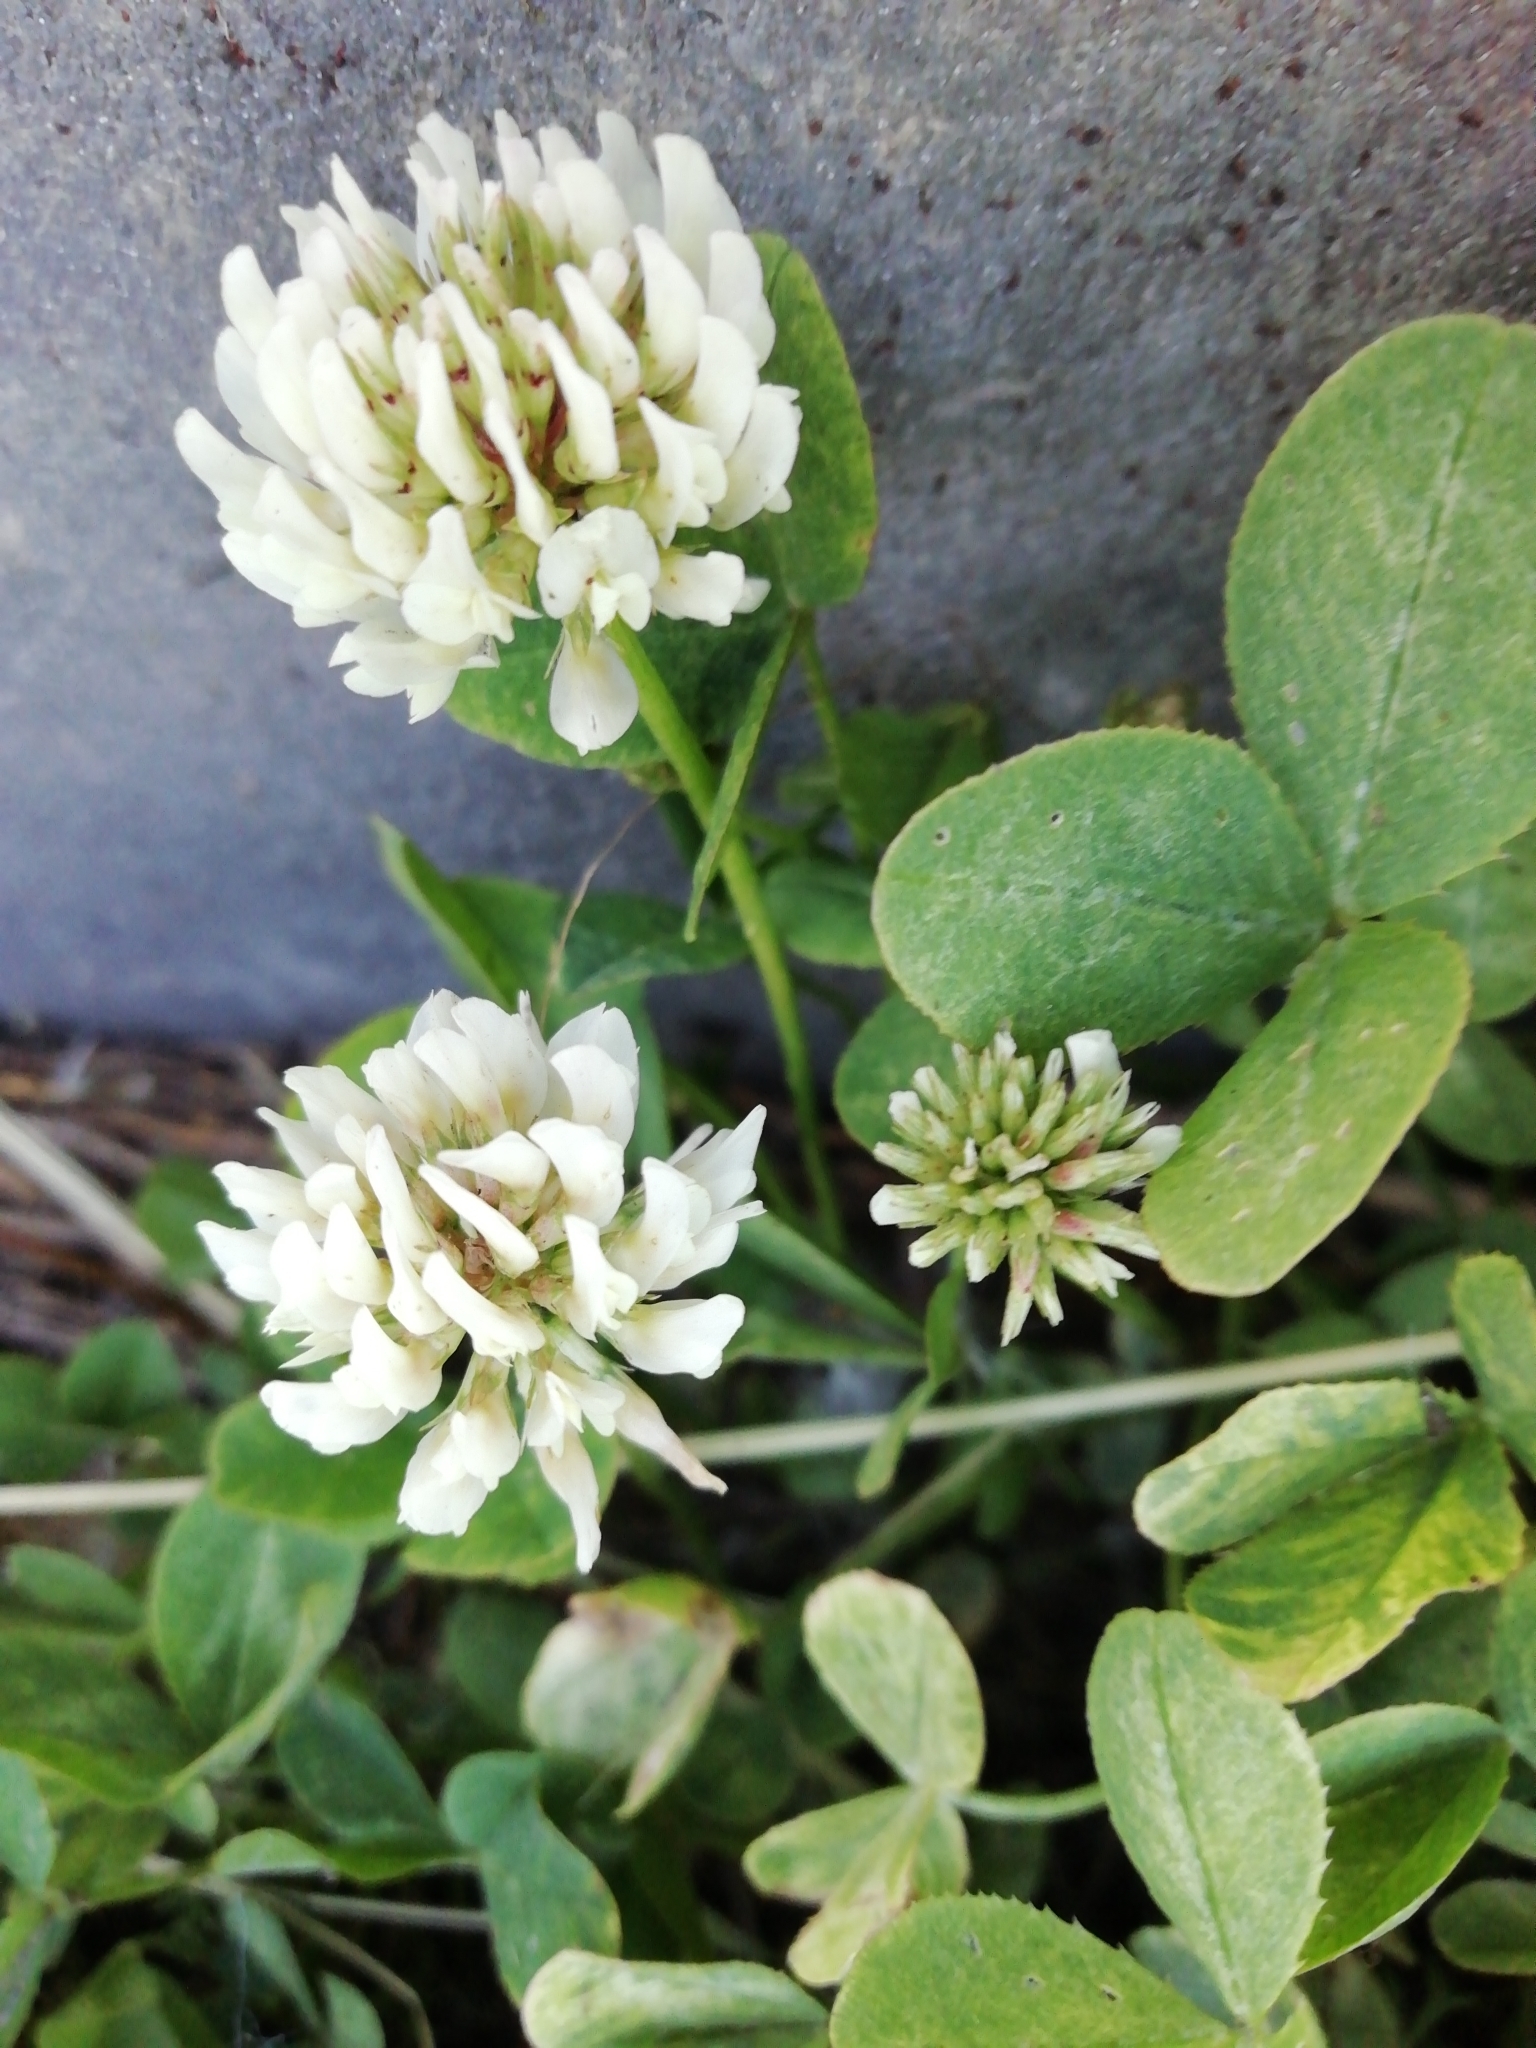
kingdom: Plantae
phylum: Tracheophyta
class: Magnoliopsida
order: Fabales
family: Fabaceae
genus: Trifolium
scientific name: Trifolium repens
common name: White clover
